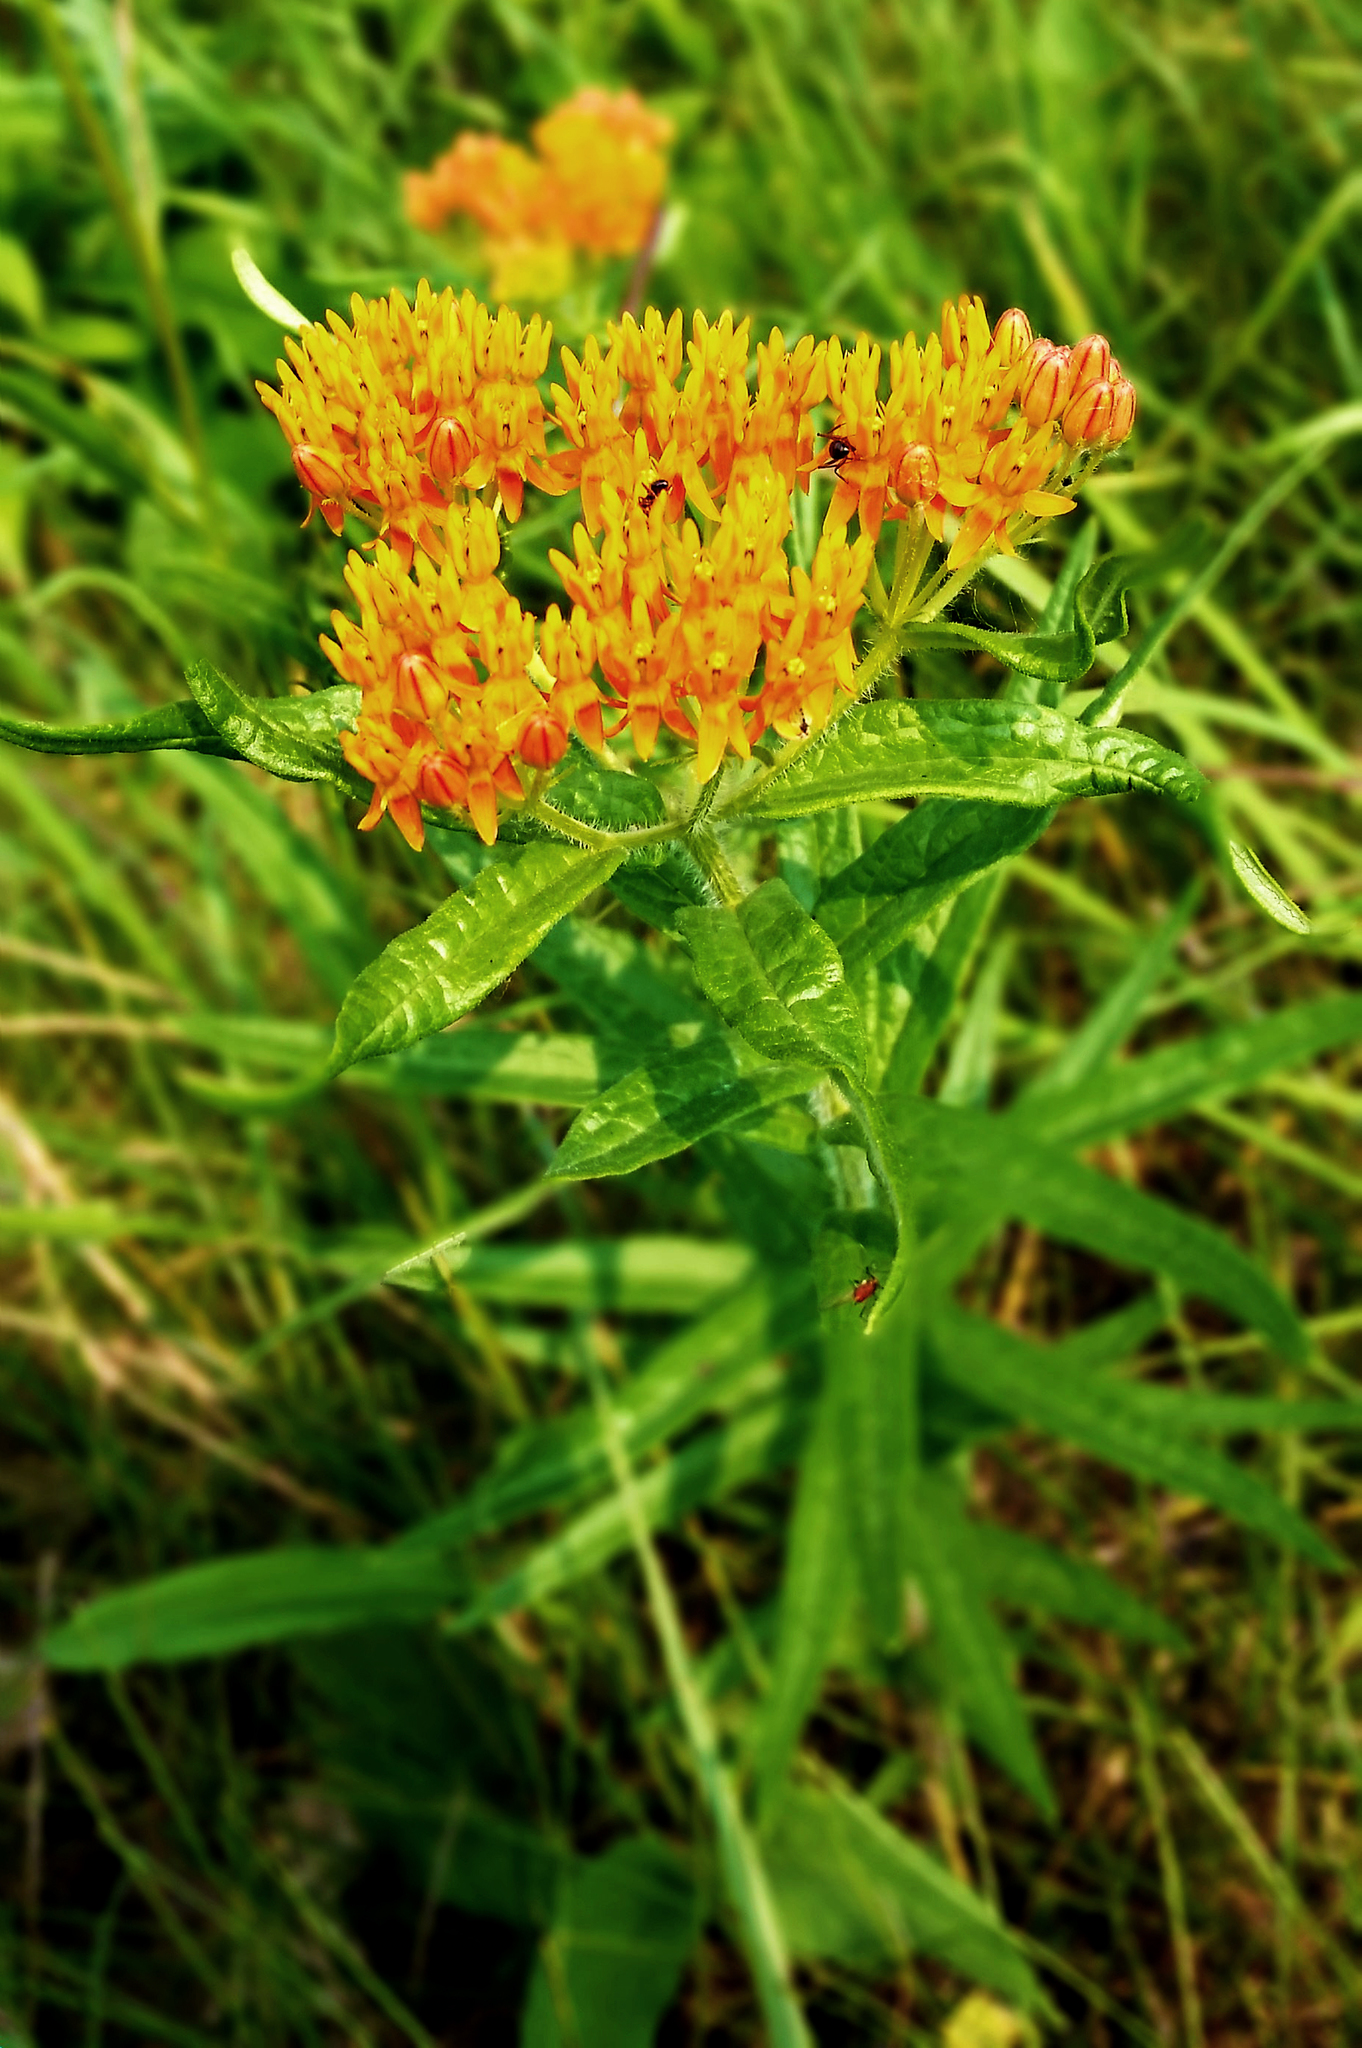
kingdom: Plantae
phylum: Tracheophyta
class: Magnoliopsida
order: Gentianales
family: Apocynaceae
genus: Asclepias
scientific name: Asclepias tuberosa
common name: Butterfly milkweed
